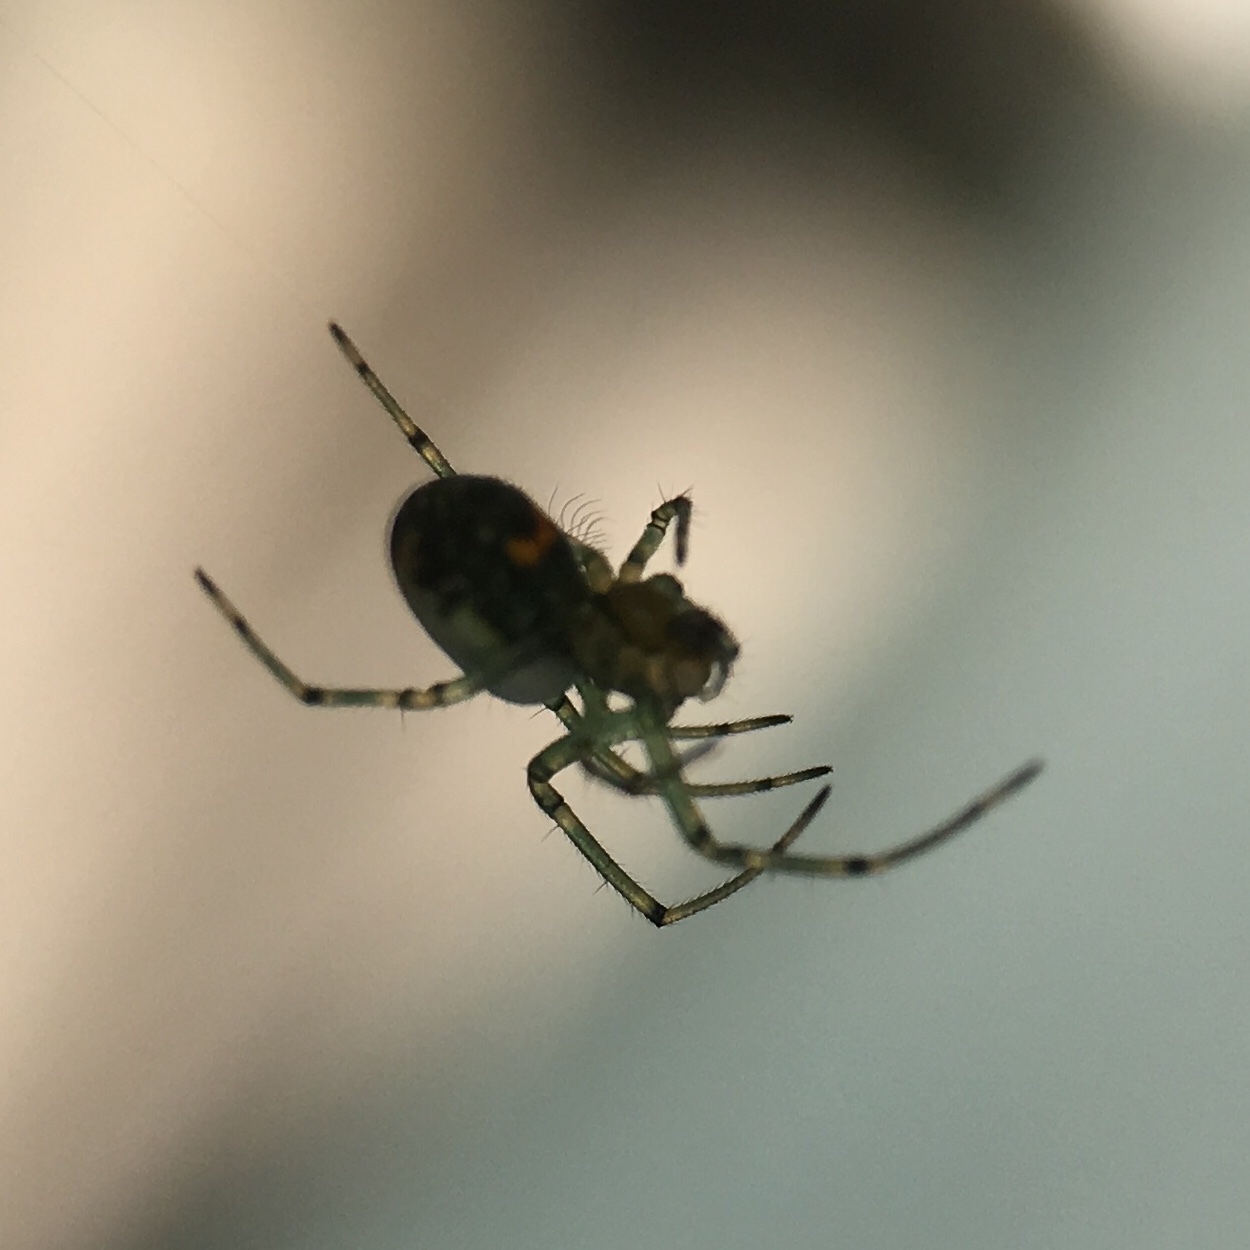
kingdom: Animalia
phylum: Arthropoda
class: Arachnida
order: Araneae
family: Tetragnathidae
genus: Leucauge
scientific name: Leucauge venusta
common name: Longjawed orb weavers
